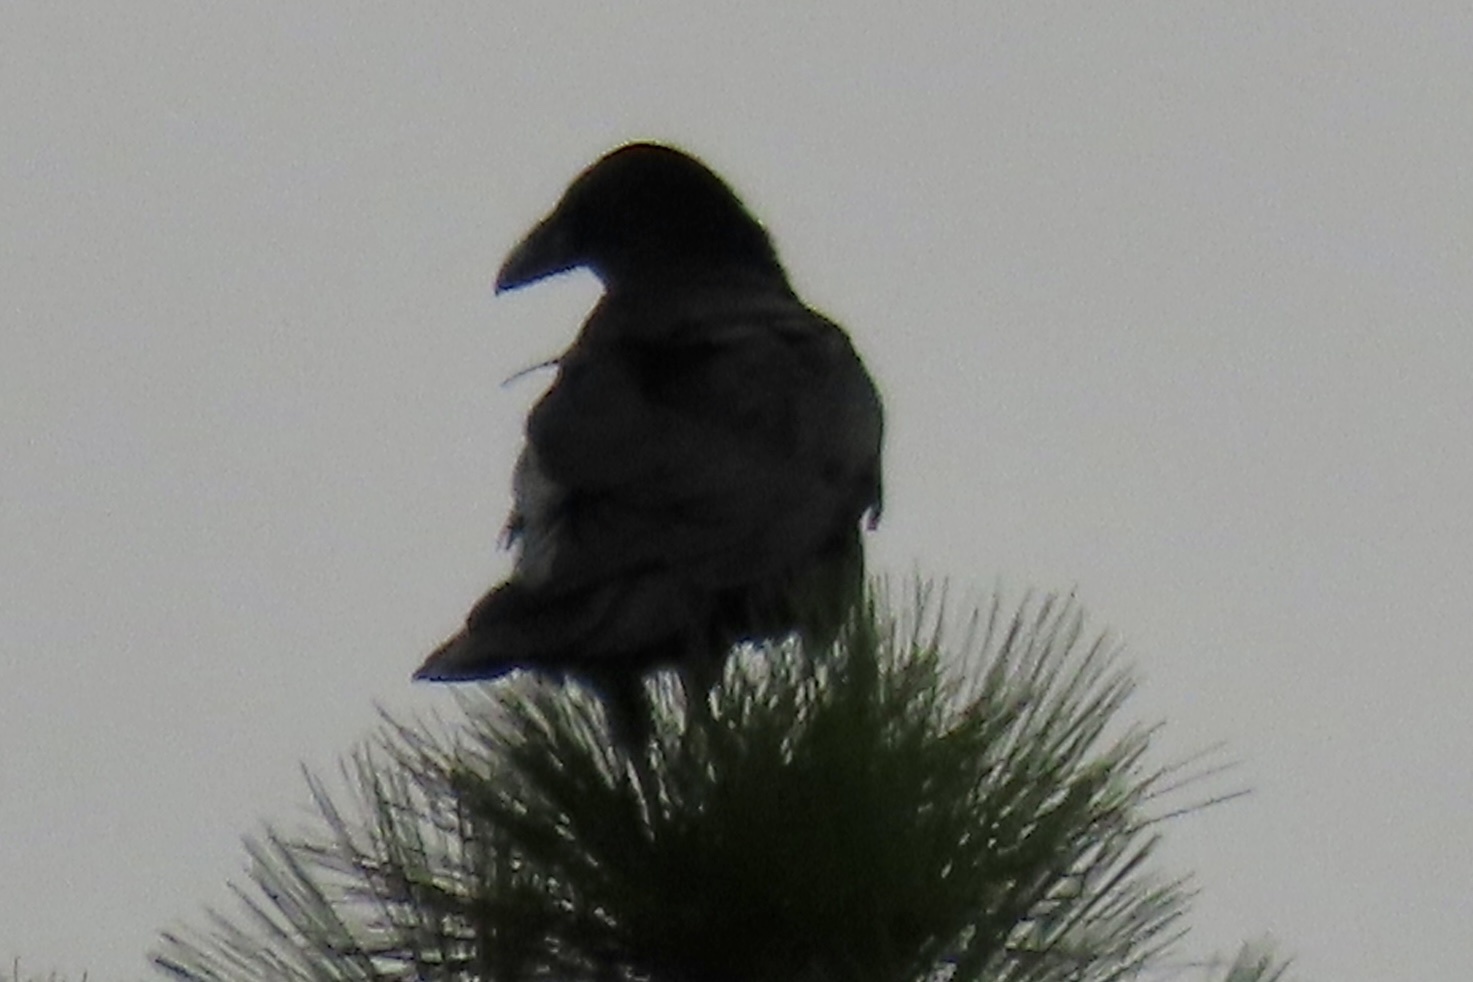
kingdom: Animalia
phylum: Chordata
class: Aves
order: Passeriformes
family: Corvidae
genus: Corvus
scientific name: Corvus corax
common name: Common raven
